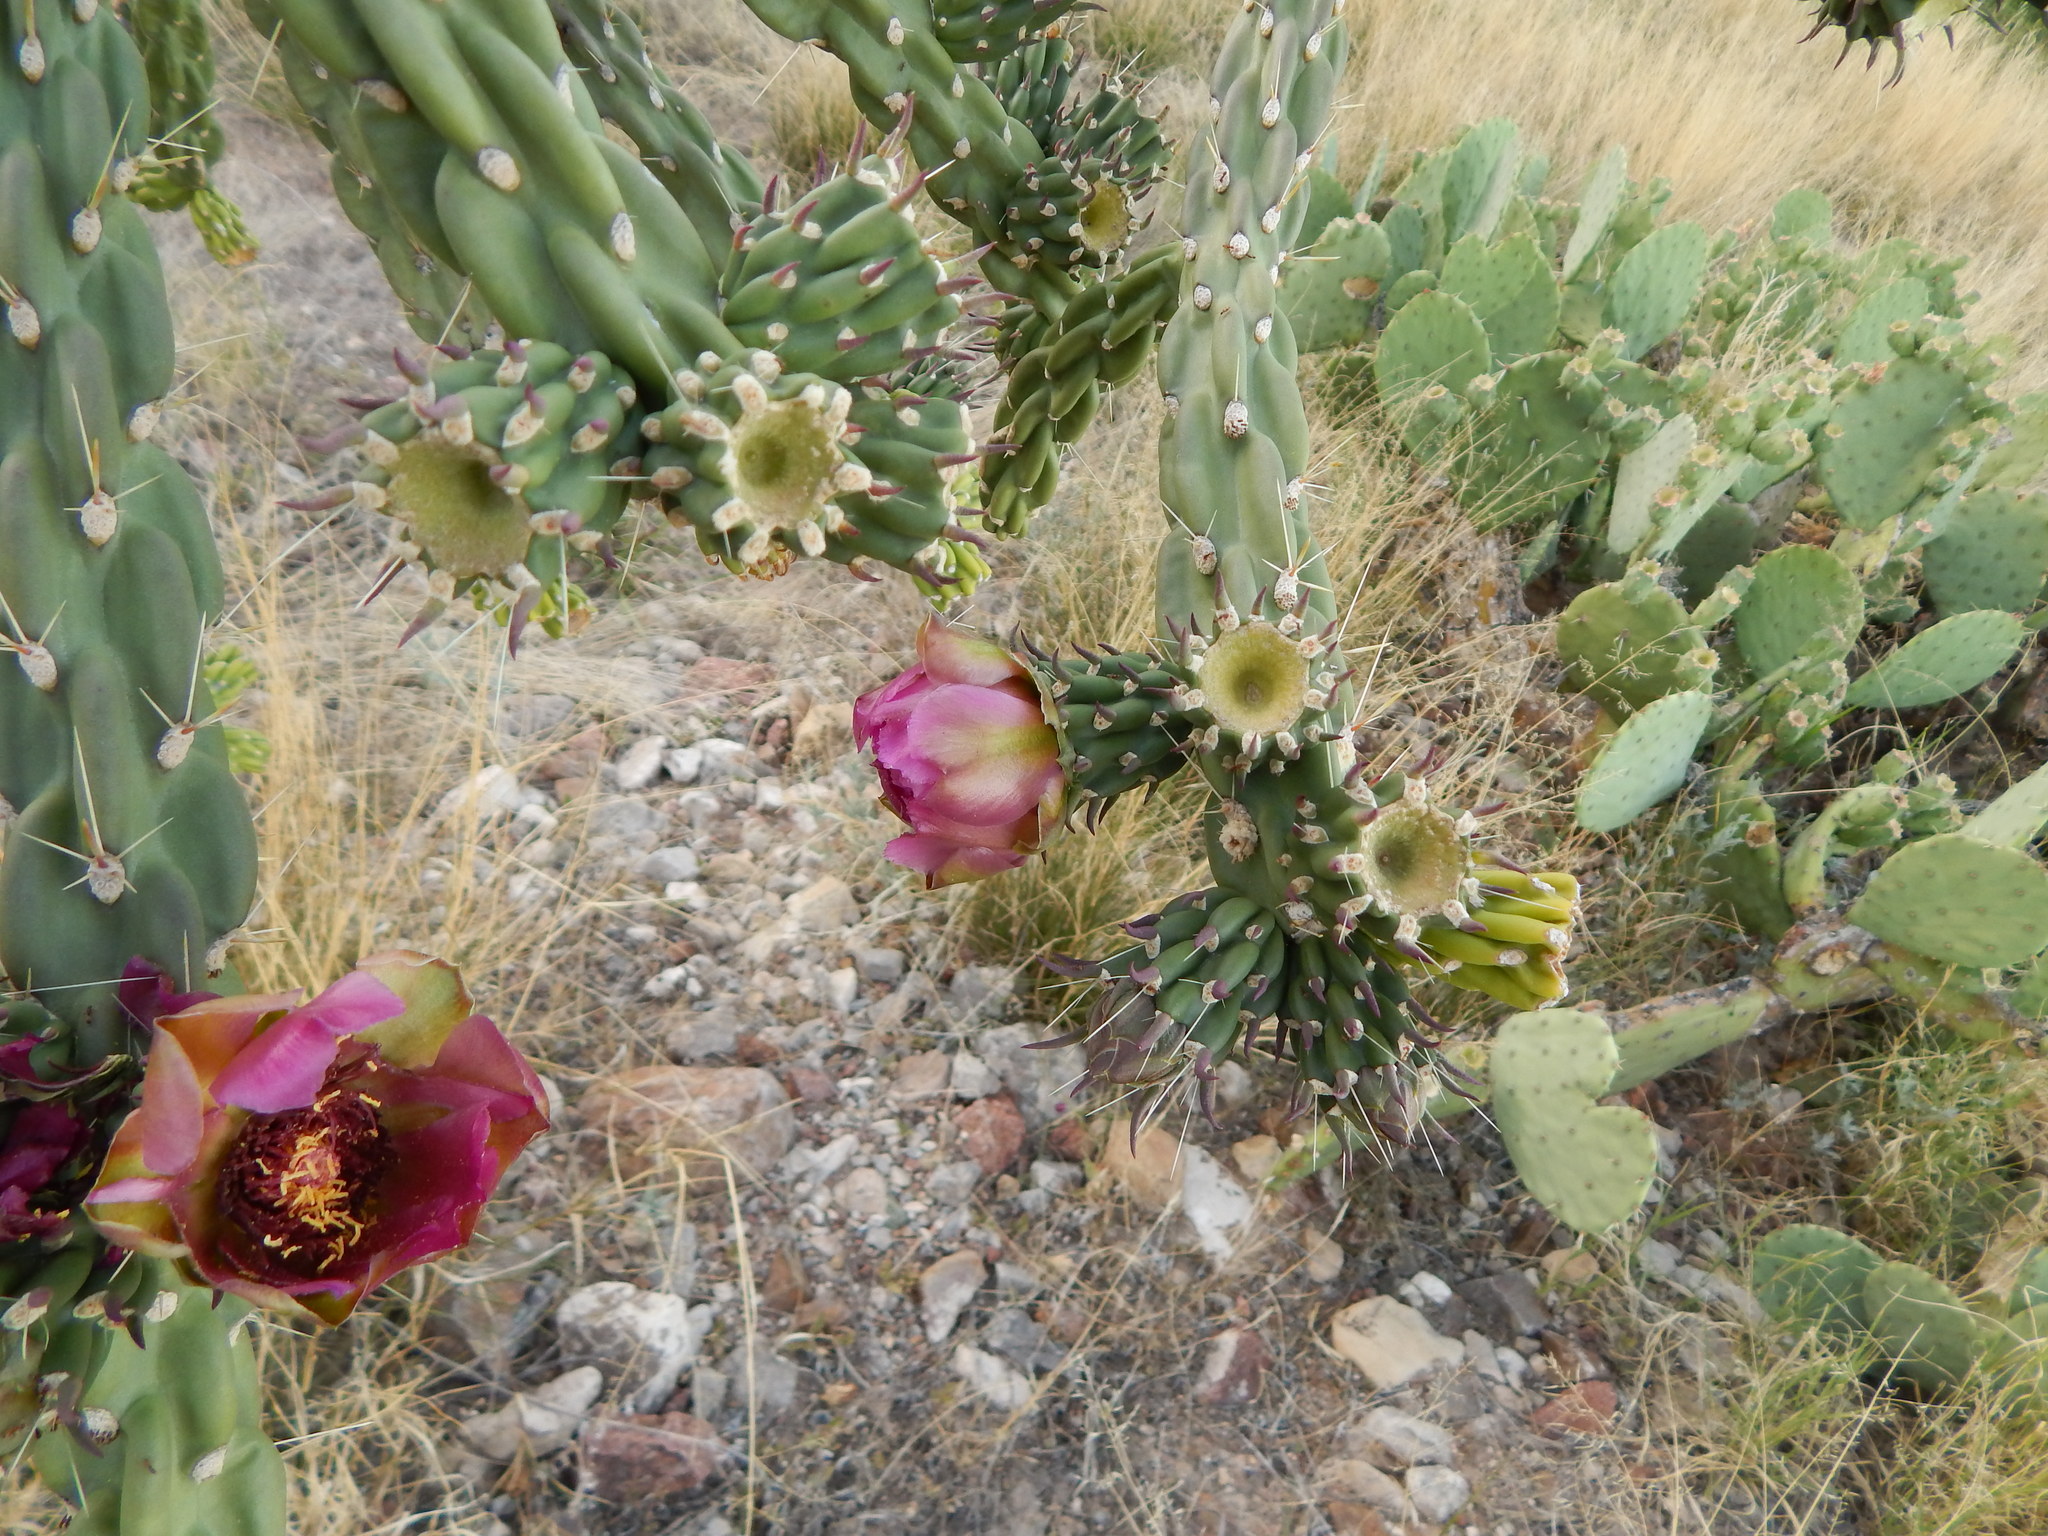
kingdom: Plantae
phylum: Tracheophyta
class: Magnoliopsida
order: Caryophyllales
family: Cactaceae
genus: Cylindropuntia
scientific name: Cylindropuntia imbricata
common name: Candelabrum cactus
